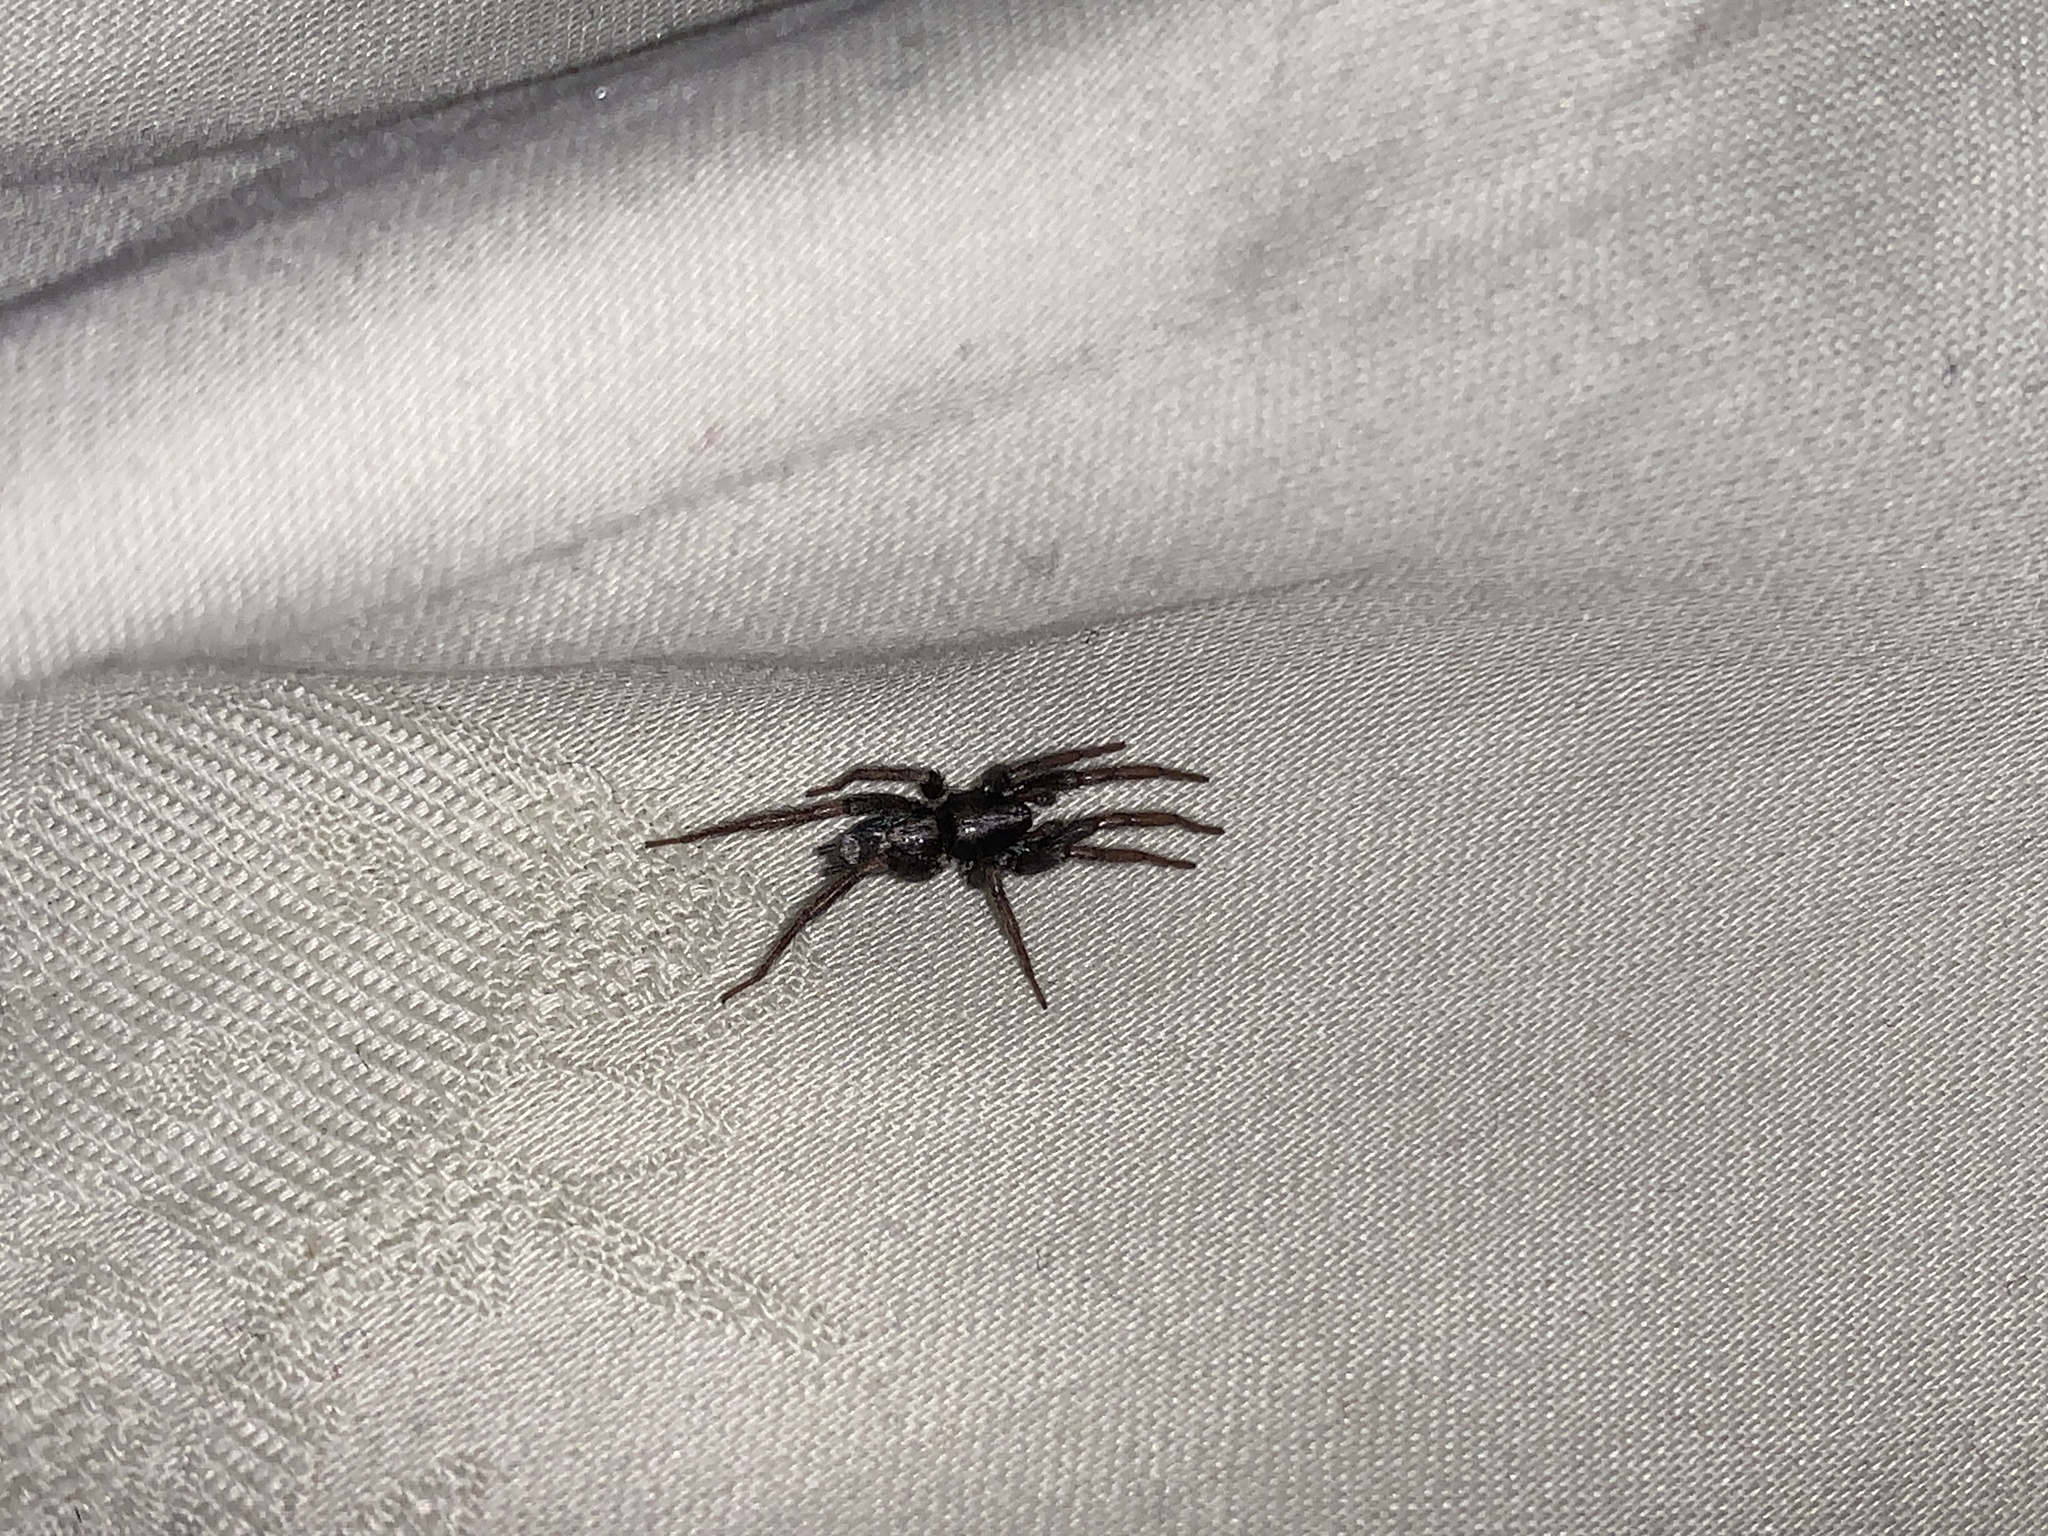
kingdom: Animalia
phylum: Arthropoda
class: Arachnida
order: Araneae
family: Gnaphosidae
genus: Herpyllus
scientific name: Herpyllus ecclesiasticus
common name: Eastern parson spider
